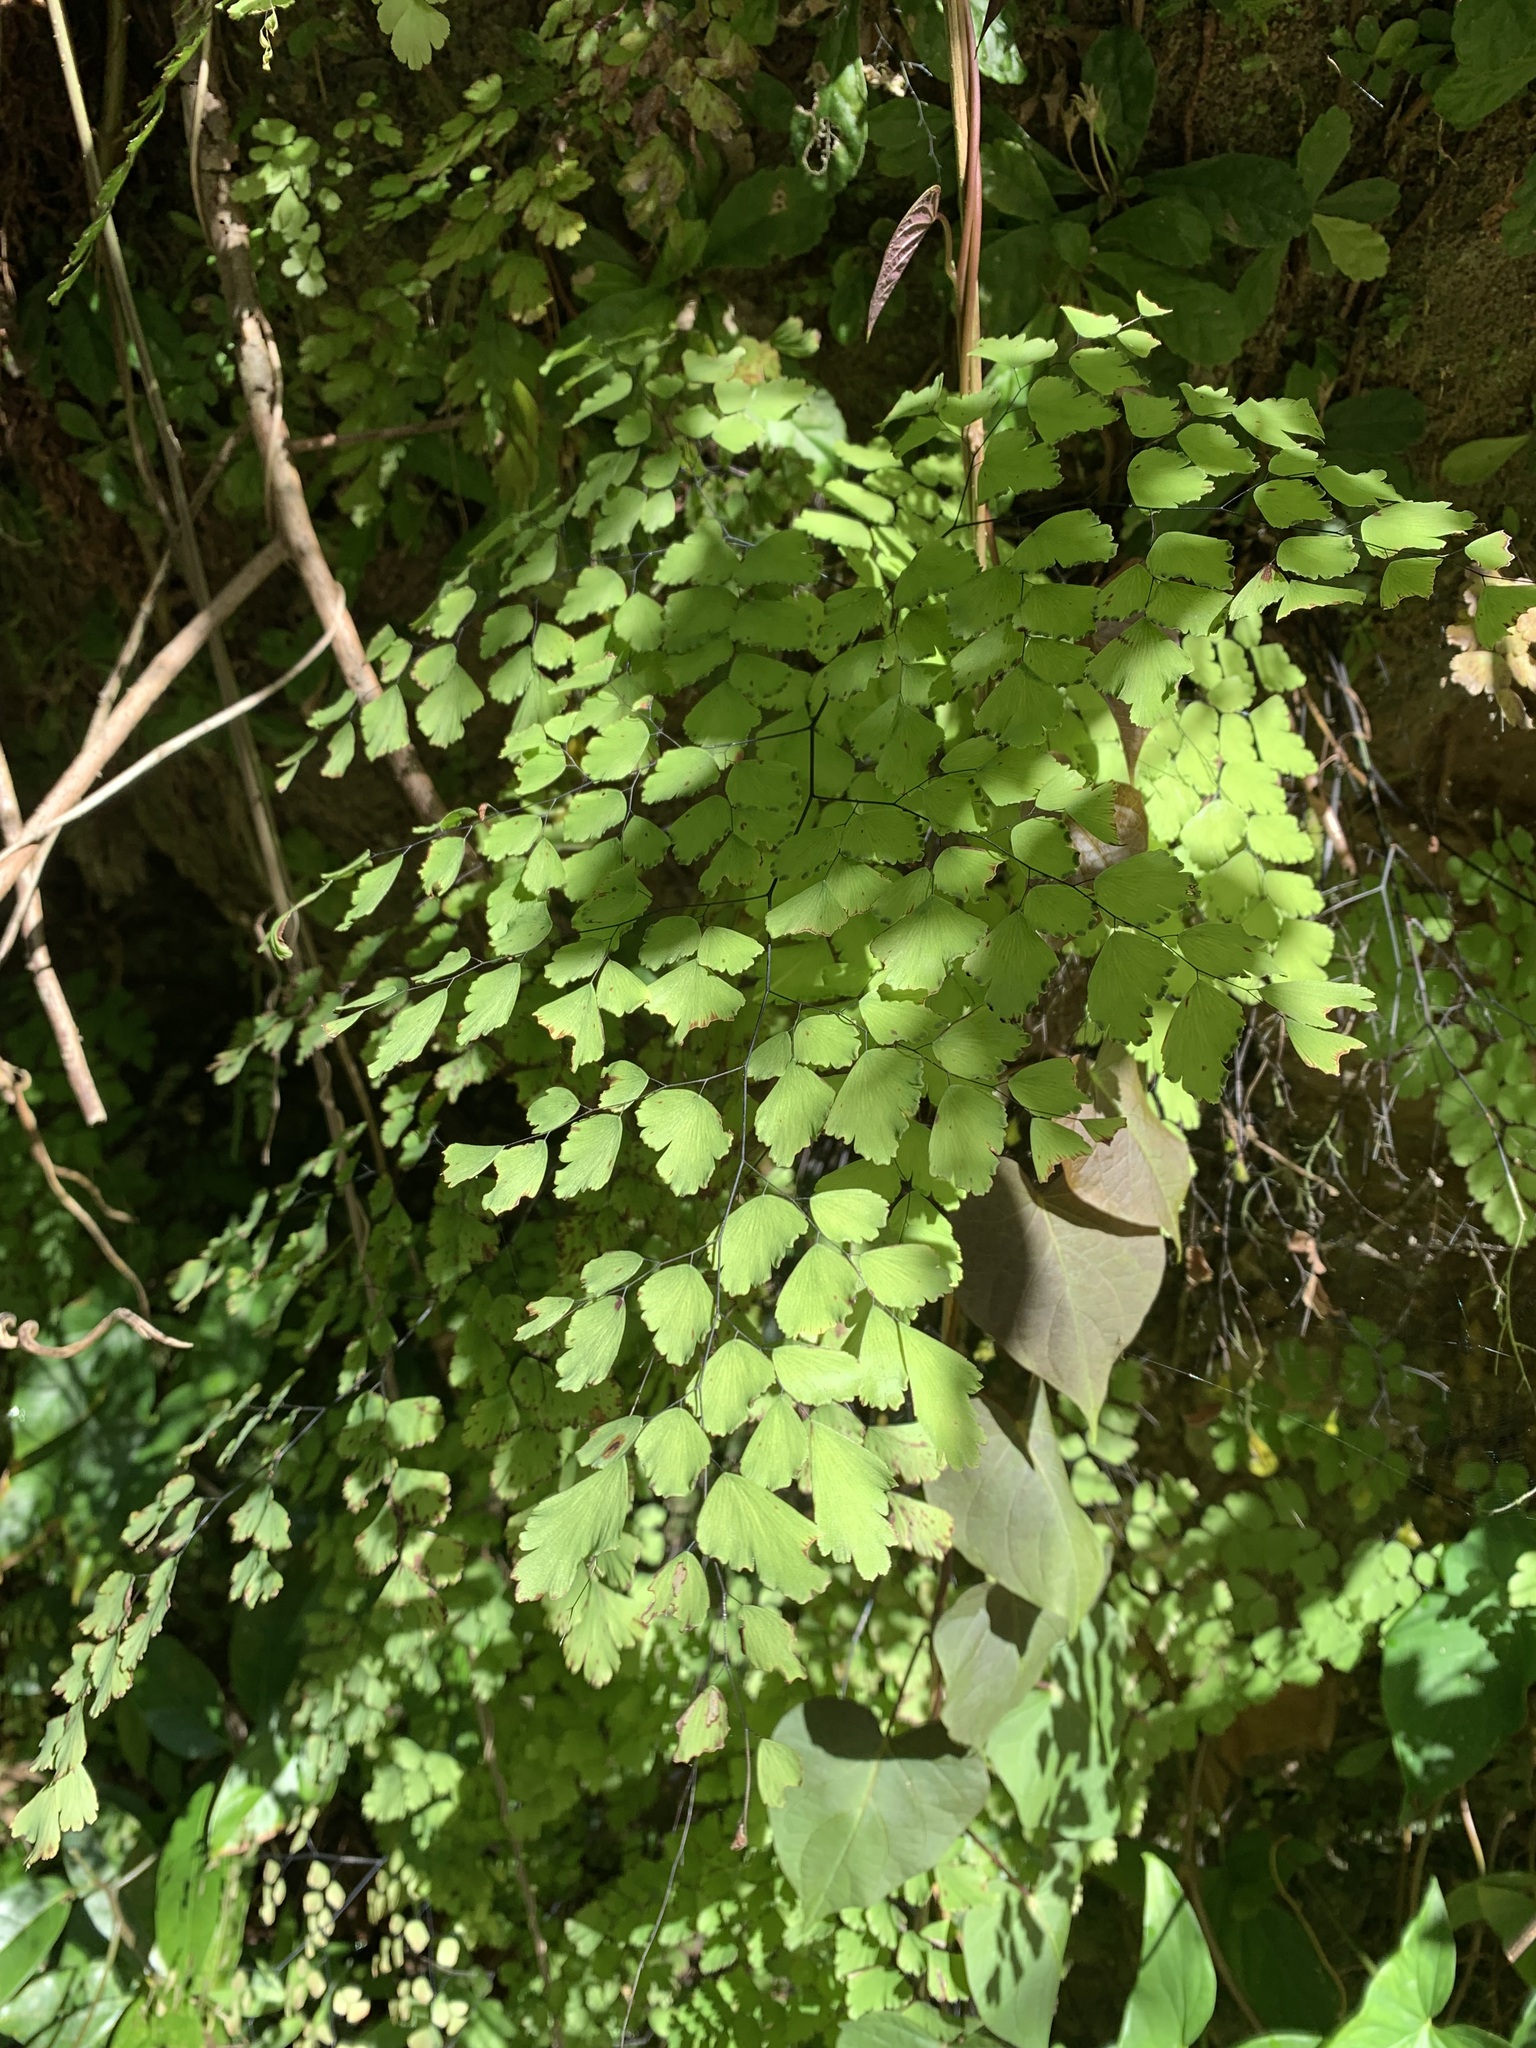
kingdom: Plantae
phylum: Tracheophyta
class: Polypodiopsida
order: Polypodiales
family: Pteridaceae
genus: Adiantum
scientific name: Adiantum tenerum
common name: Fan maidenhair
